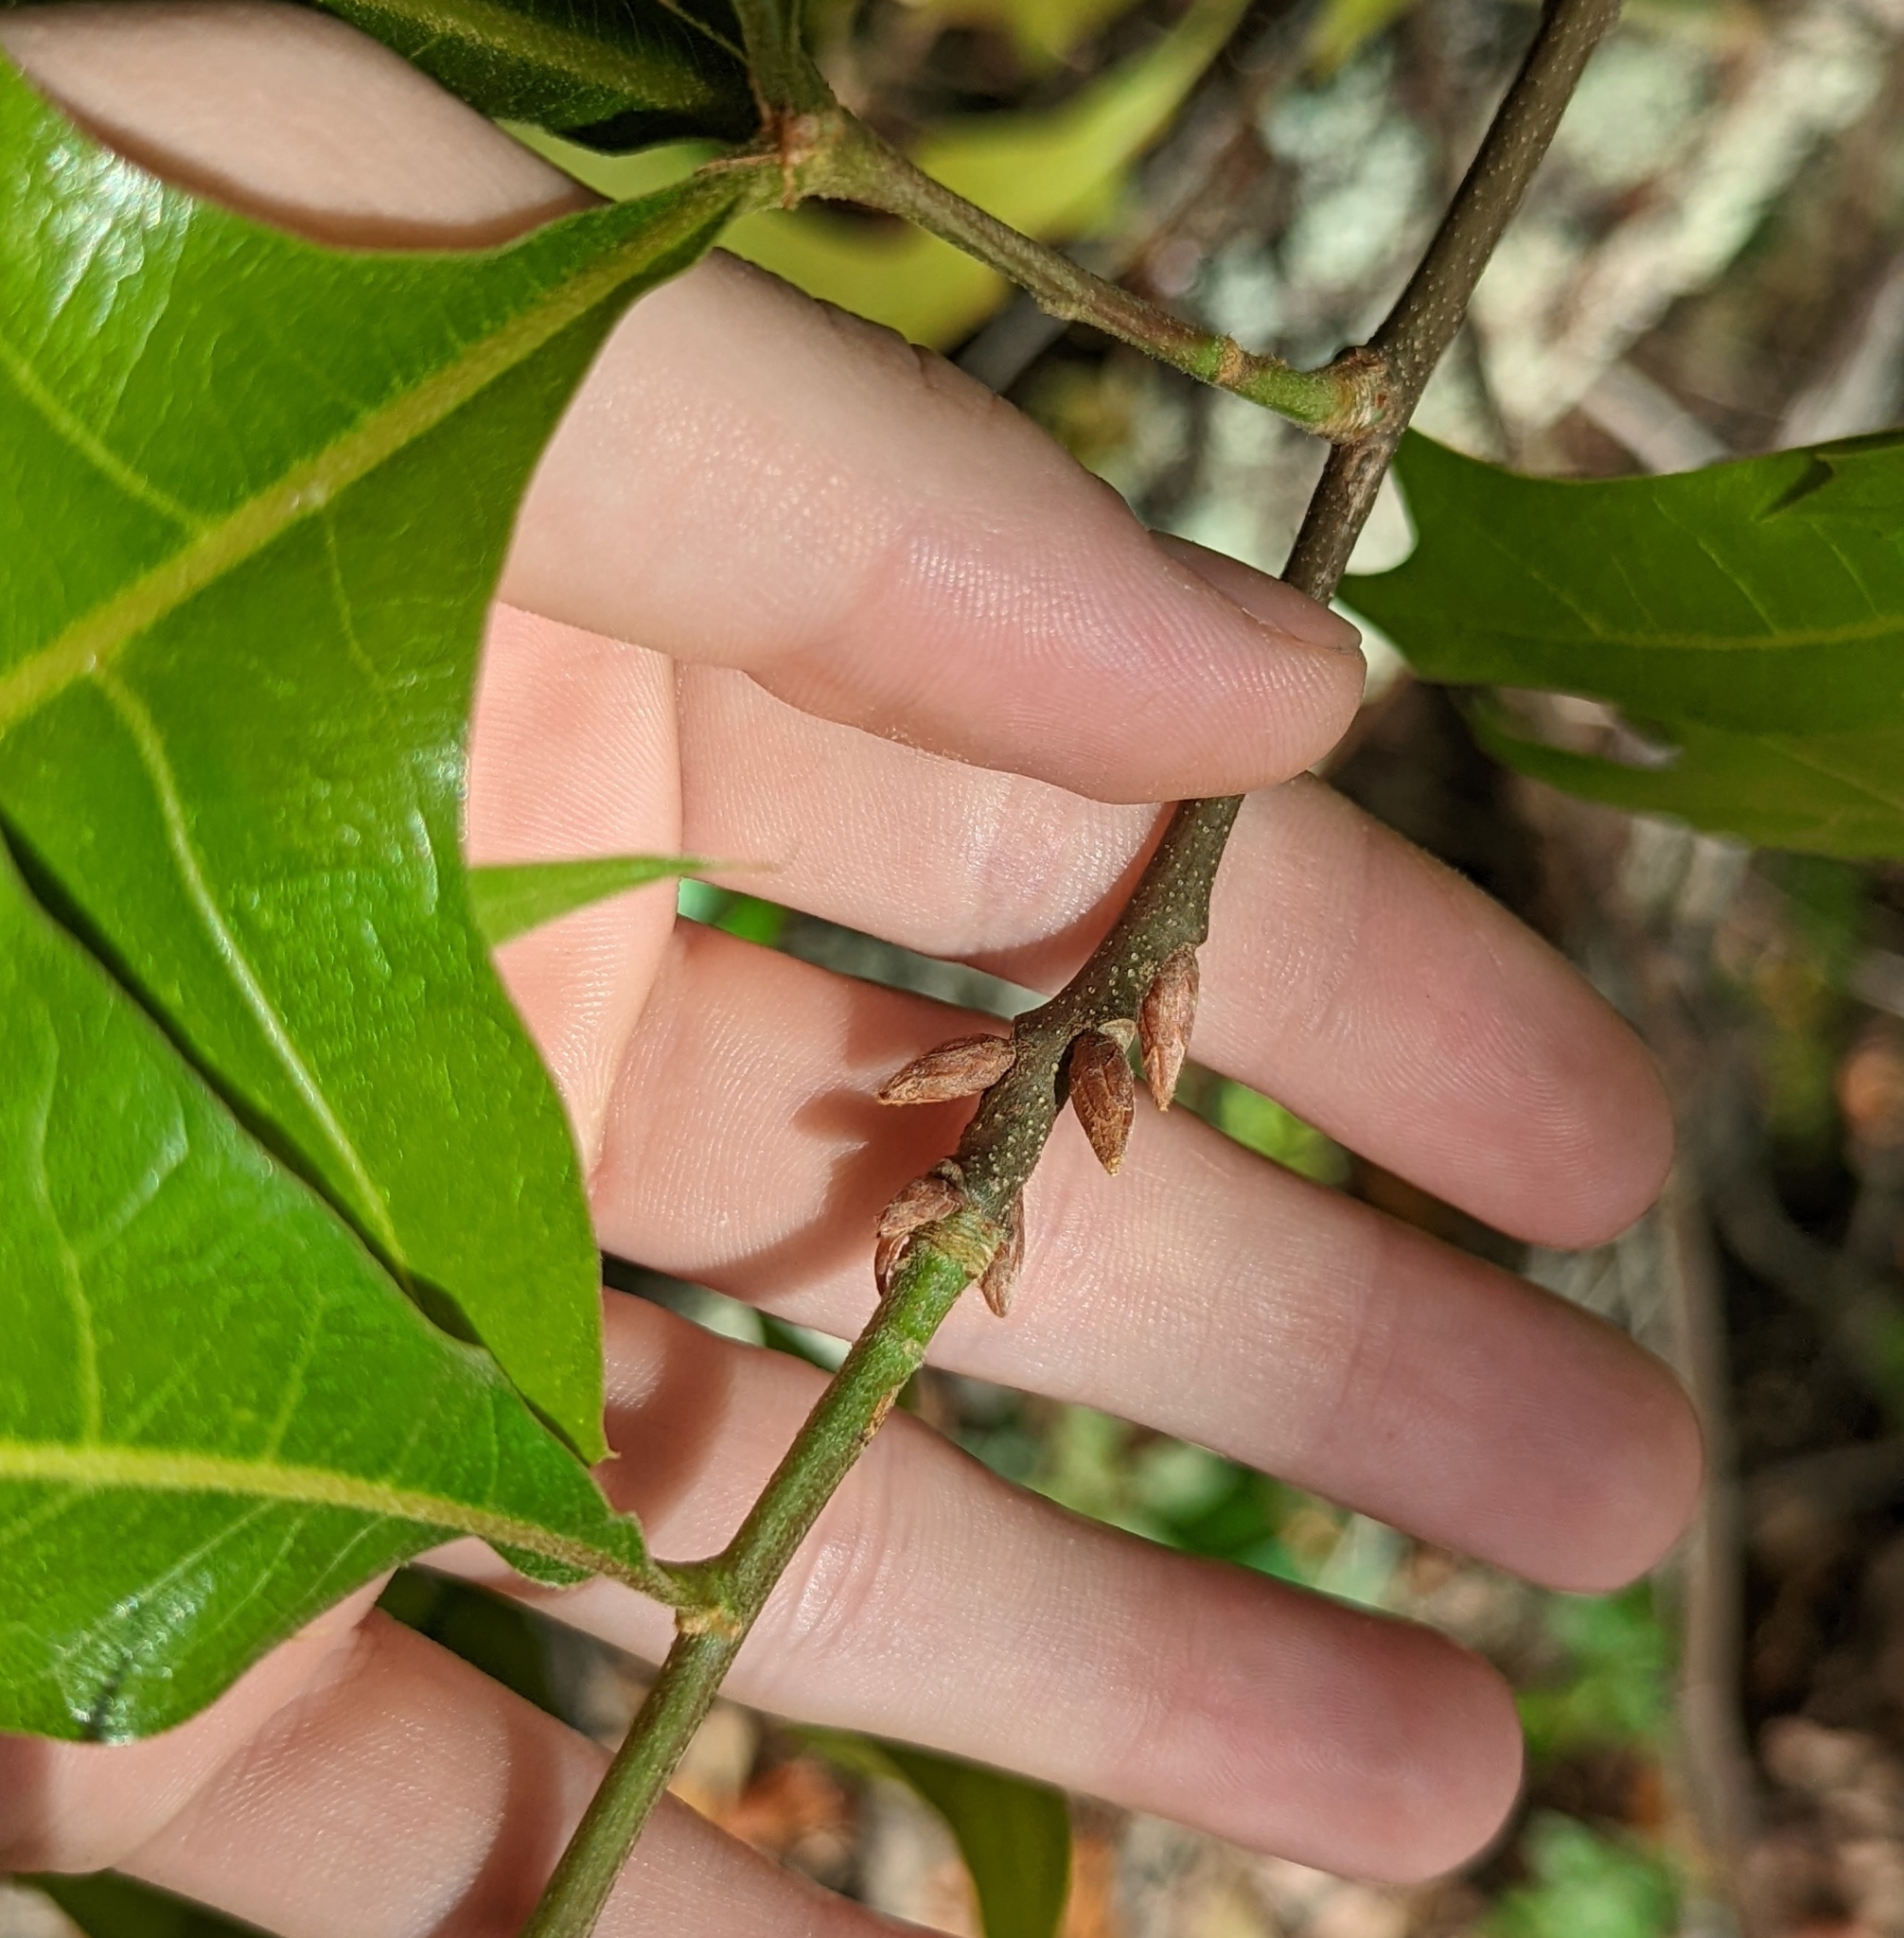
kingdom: Plantae
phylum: Tracheophyta
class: Magnoliopsida
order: Fagales
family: Fagaceae
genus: Quercus
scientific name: Quercus laevis
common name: Turkey oak
